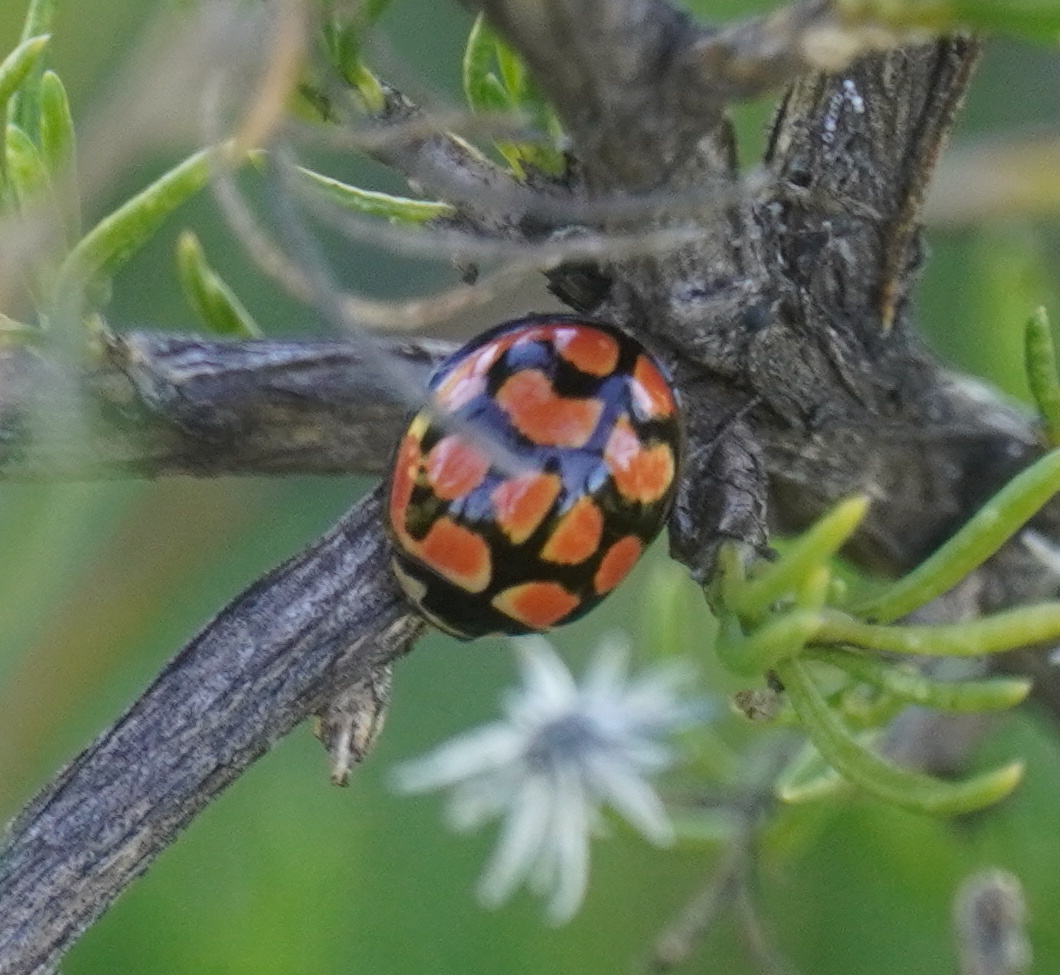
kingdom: Animalia
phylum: Arthropoda
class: Insecta
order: Coleoptera
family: Coccinellidae
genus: Cheilomenes
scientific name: Cheilomenes lunata
